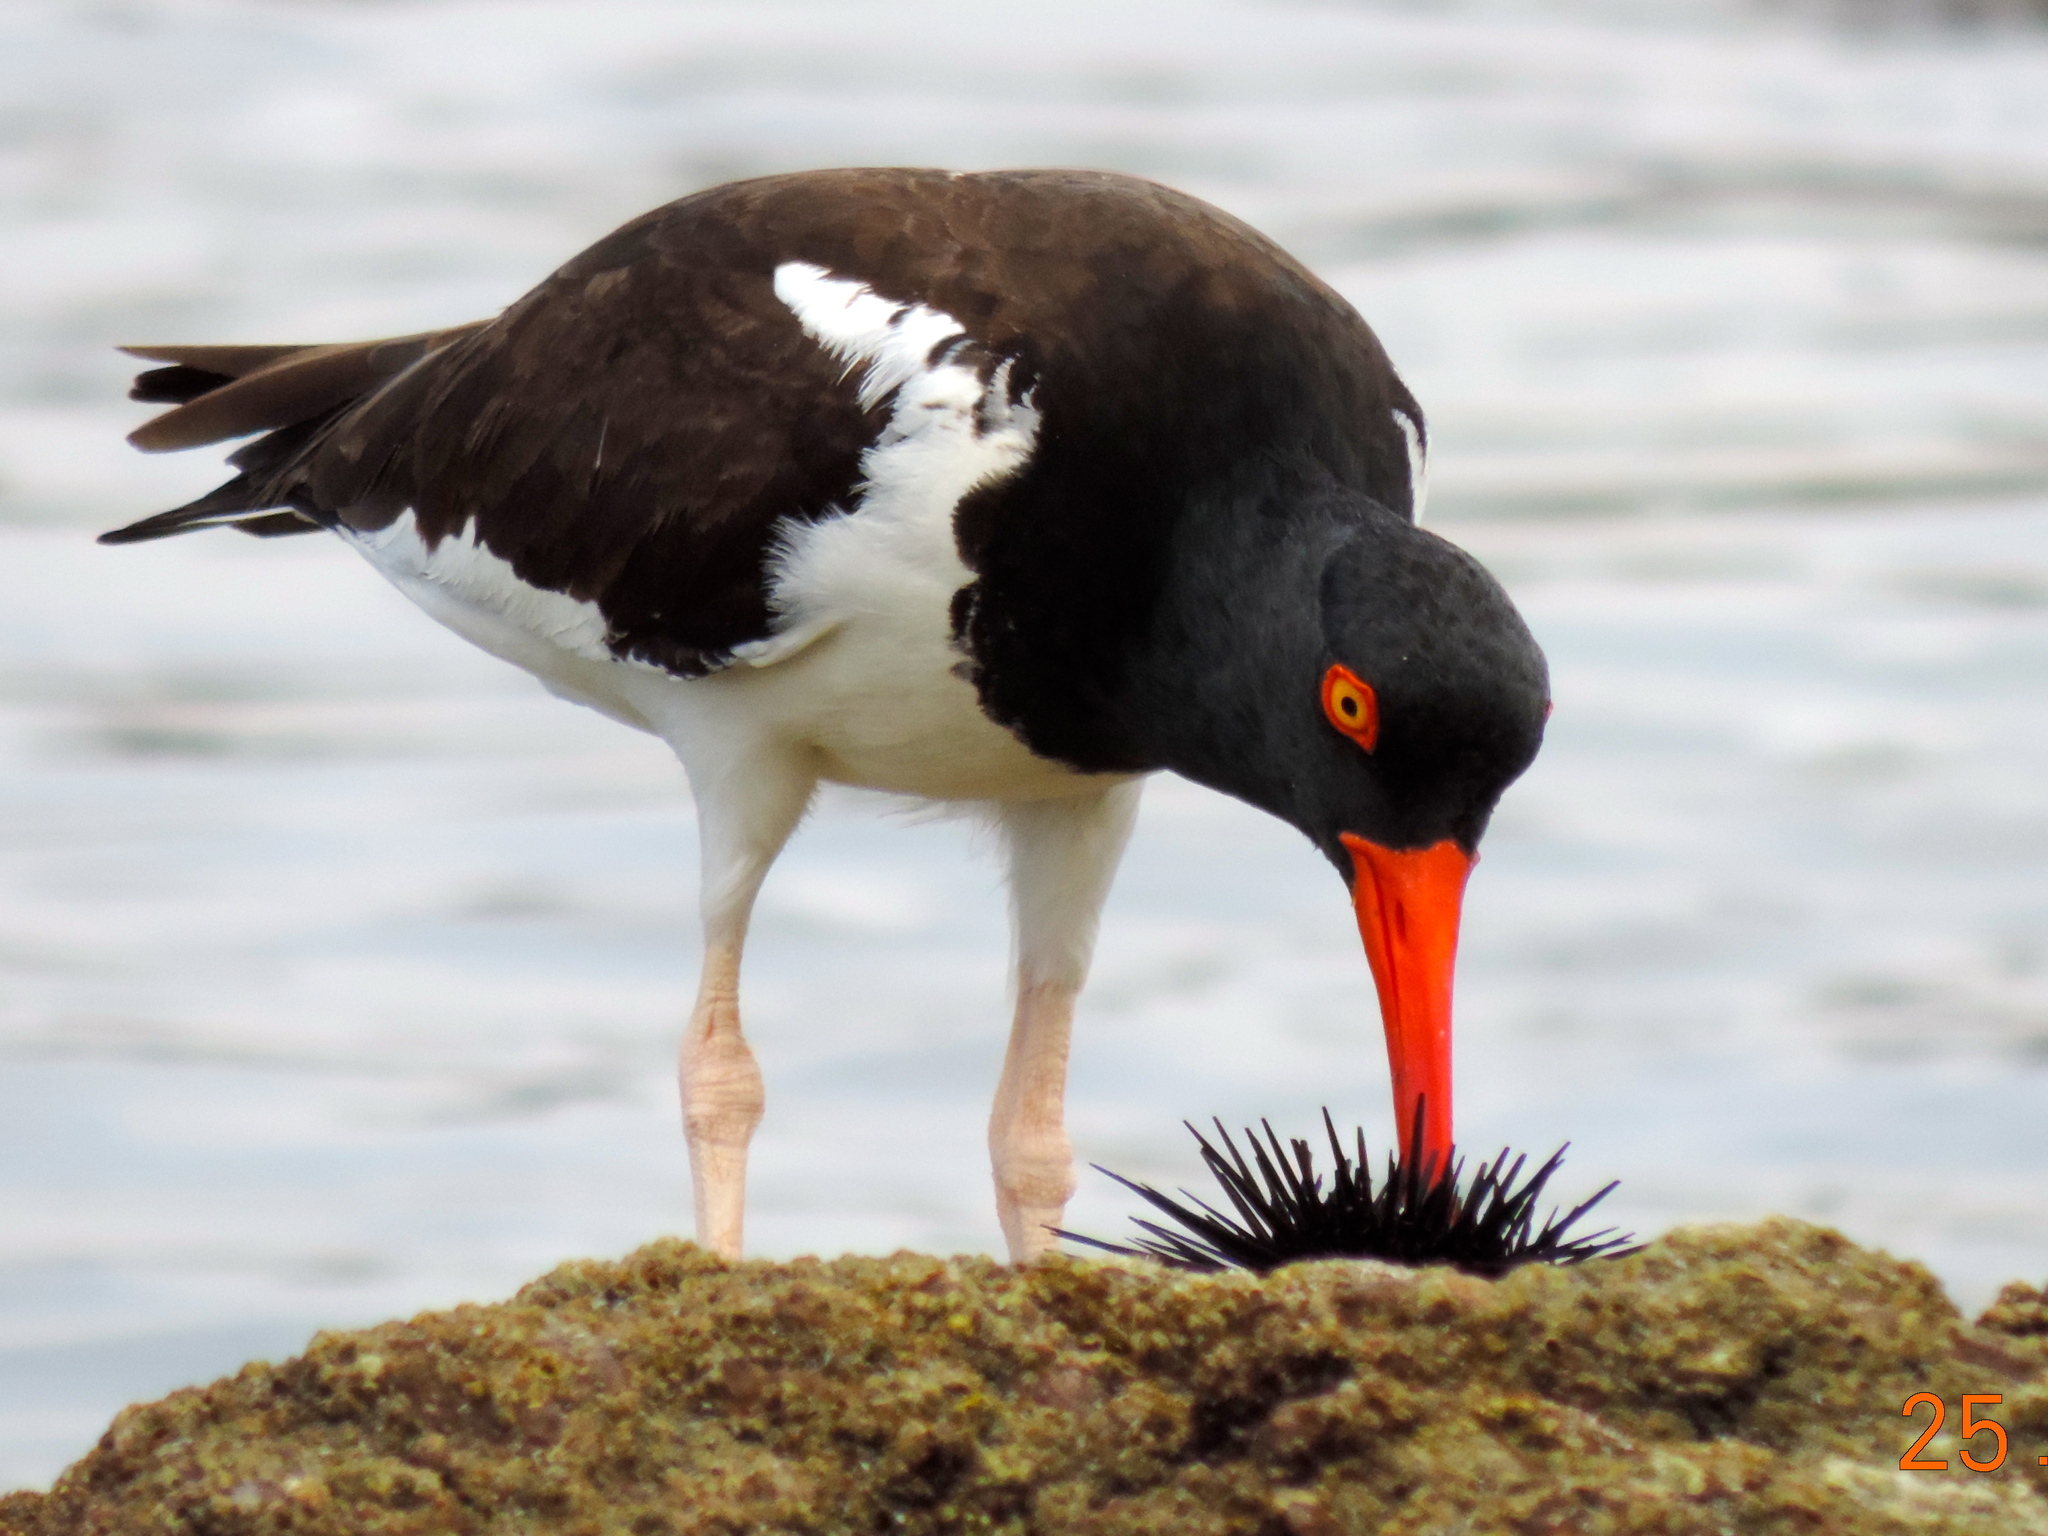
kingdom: Animalia
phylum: Chordata
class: Aves
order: Charadriiformes
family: Haematopodidae
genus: Haematopus
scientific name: Haematopus palliatus
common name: American oystercatcher
